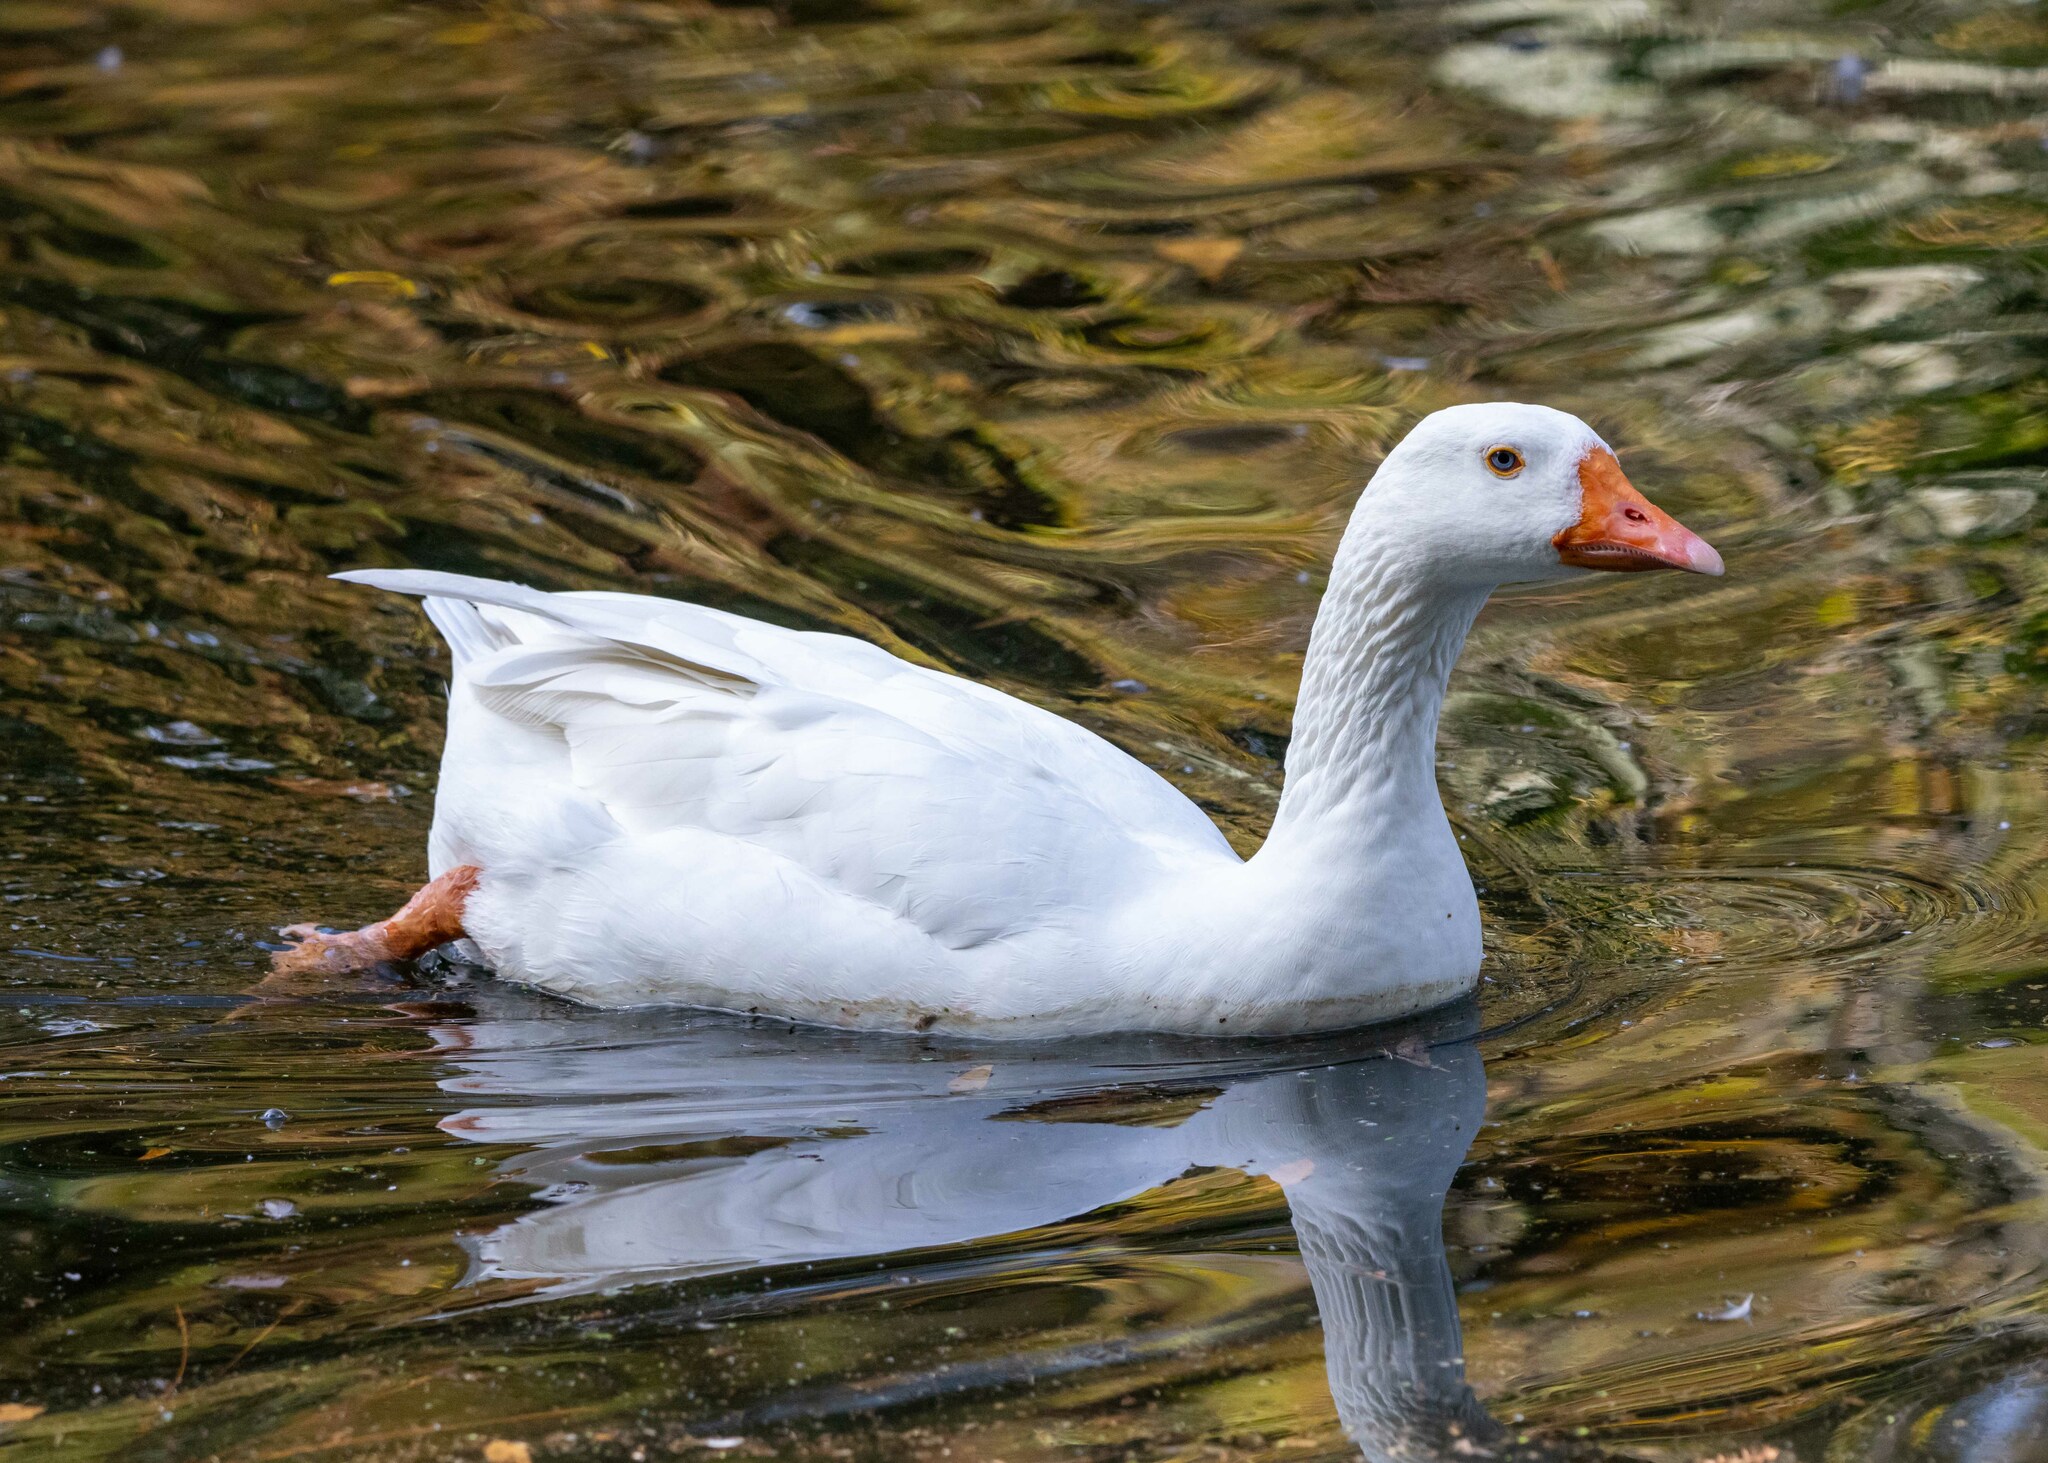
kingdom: Animalia
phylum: Chordata
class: Aves
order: Anseriformes
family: Anatidae
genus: Anser
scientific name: Anser anser
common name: Greylag goose
